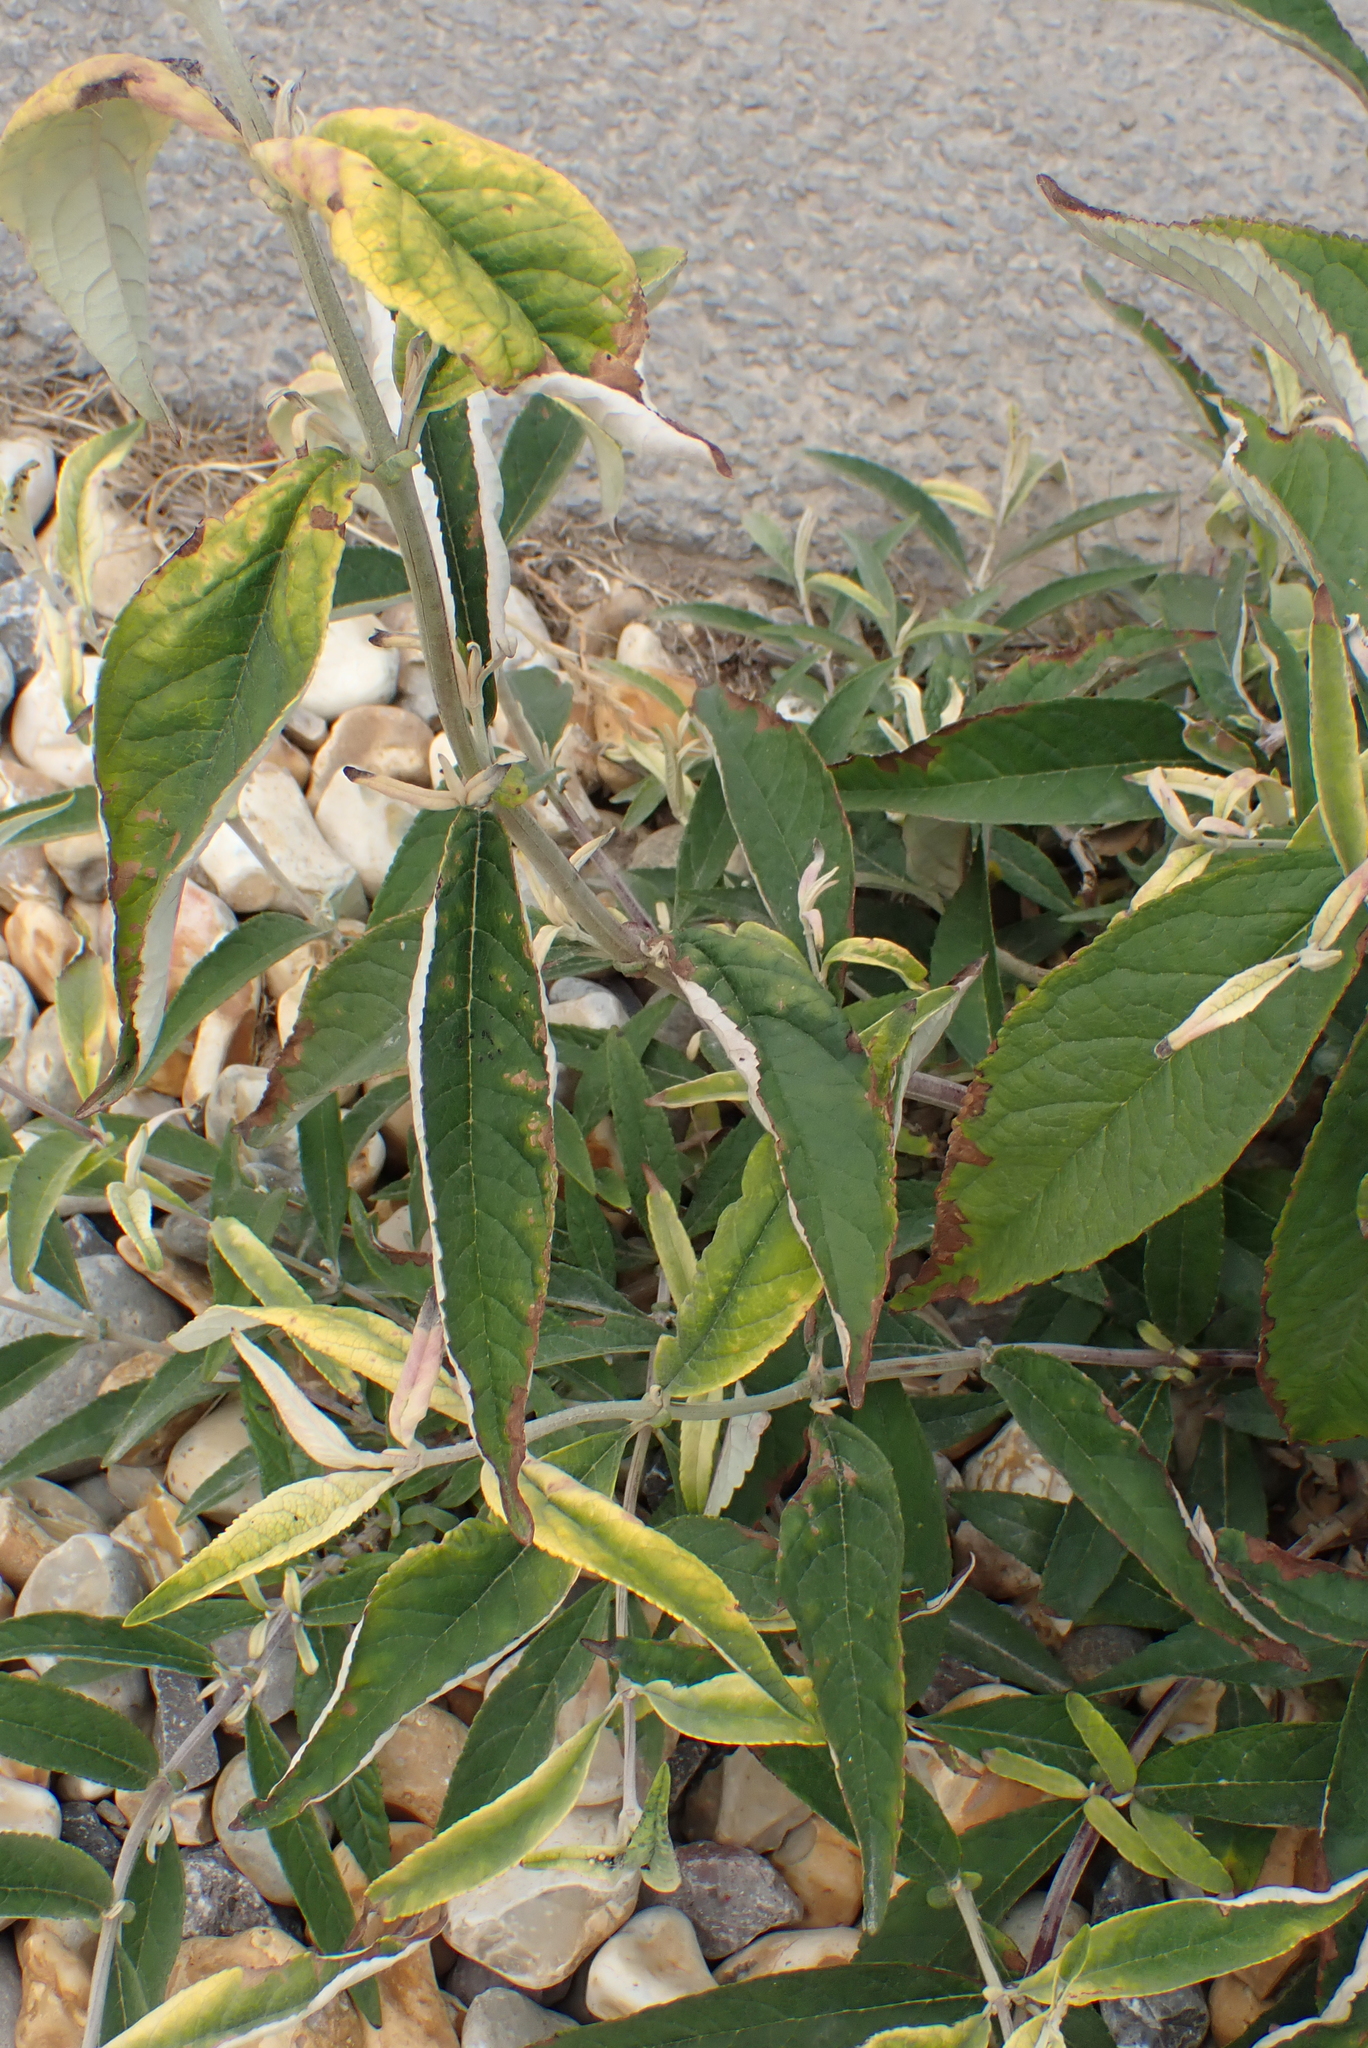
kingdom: Plantae
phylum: Tracheophyta
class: Magnoliopsida
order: Lamiales
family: Scrophulariaceae
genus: Buddleja
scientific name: Buddleja davidii
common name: Butterfly-bush
